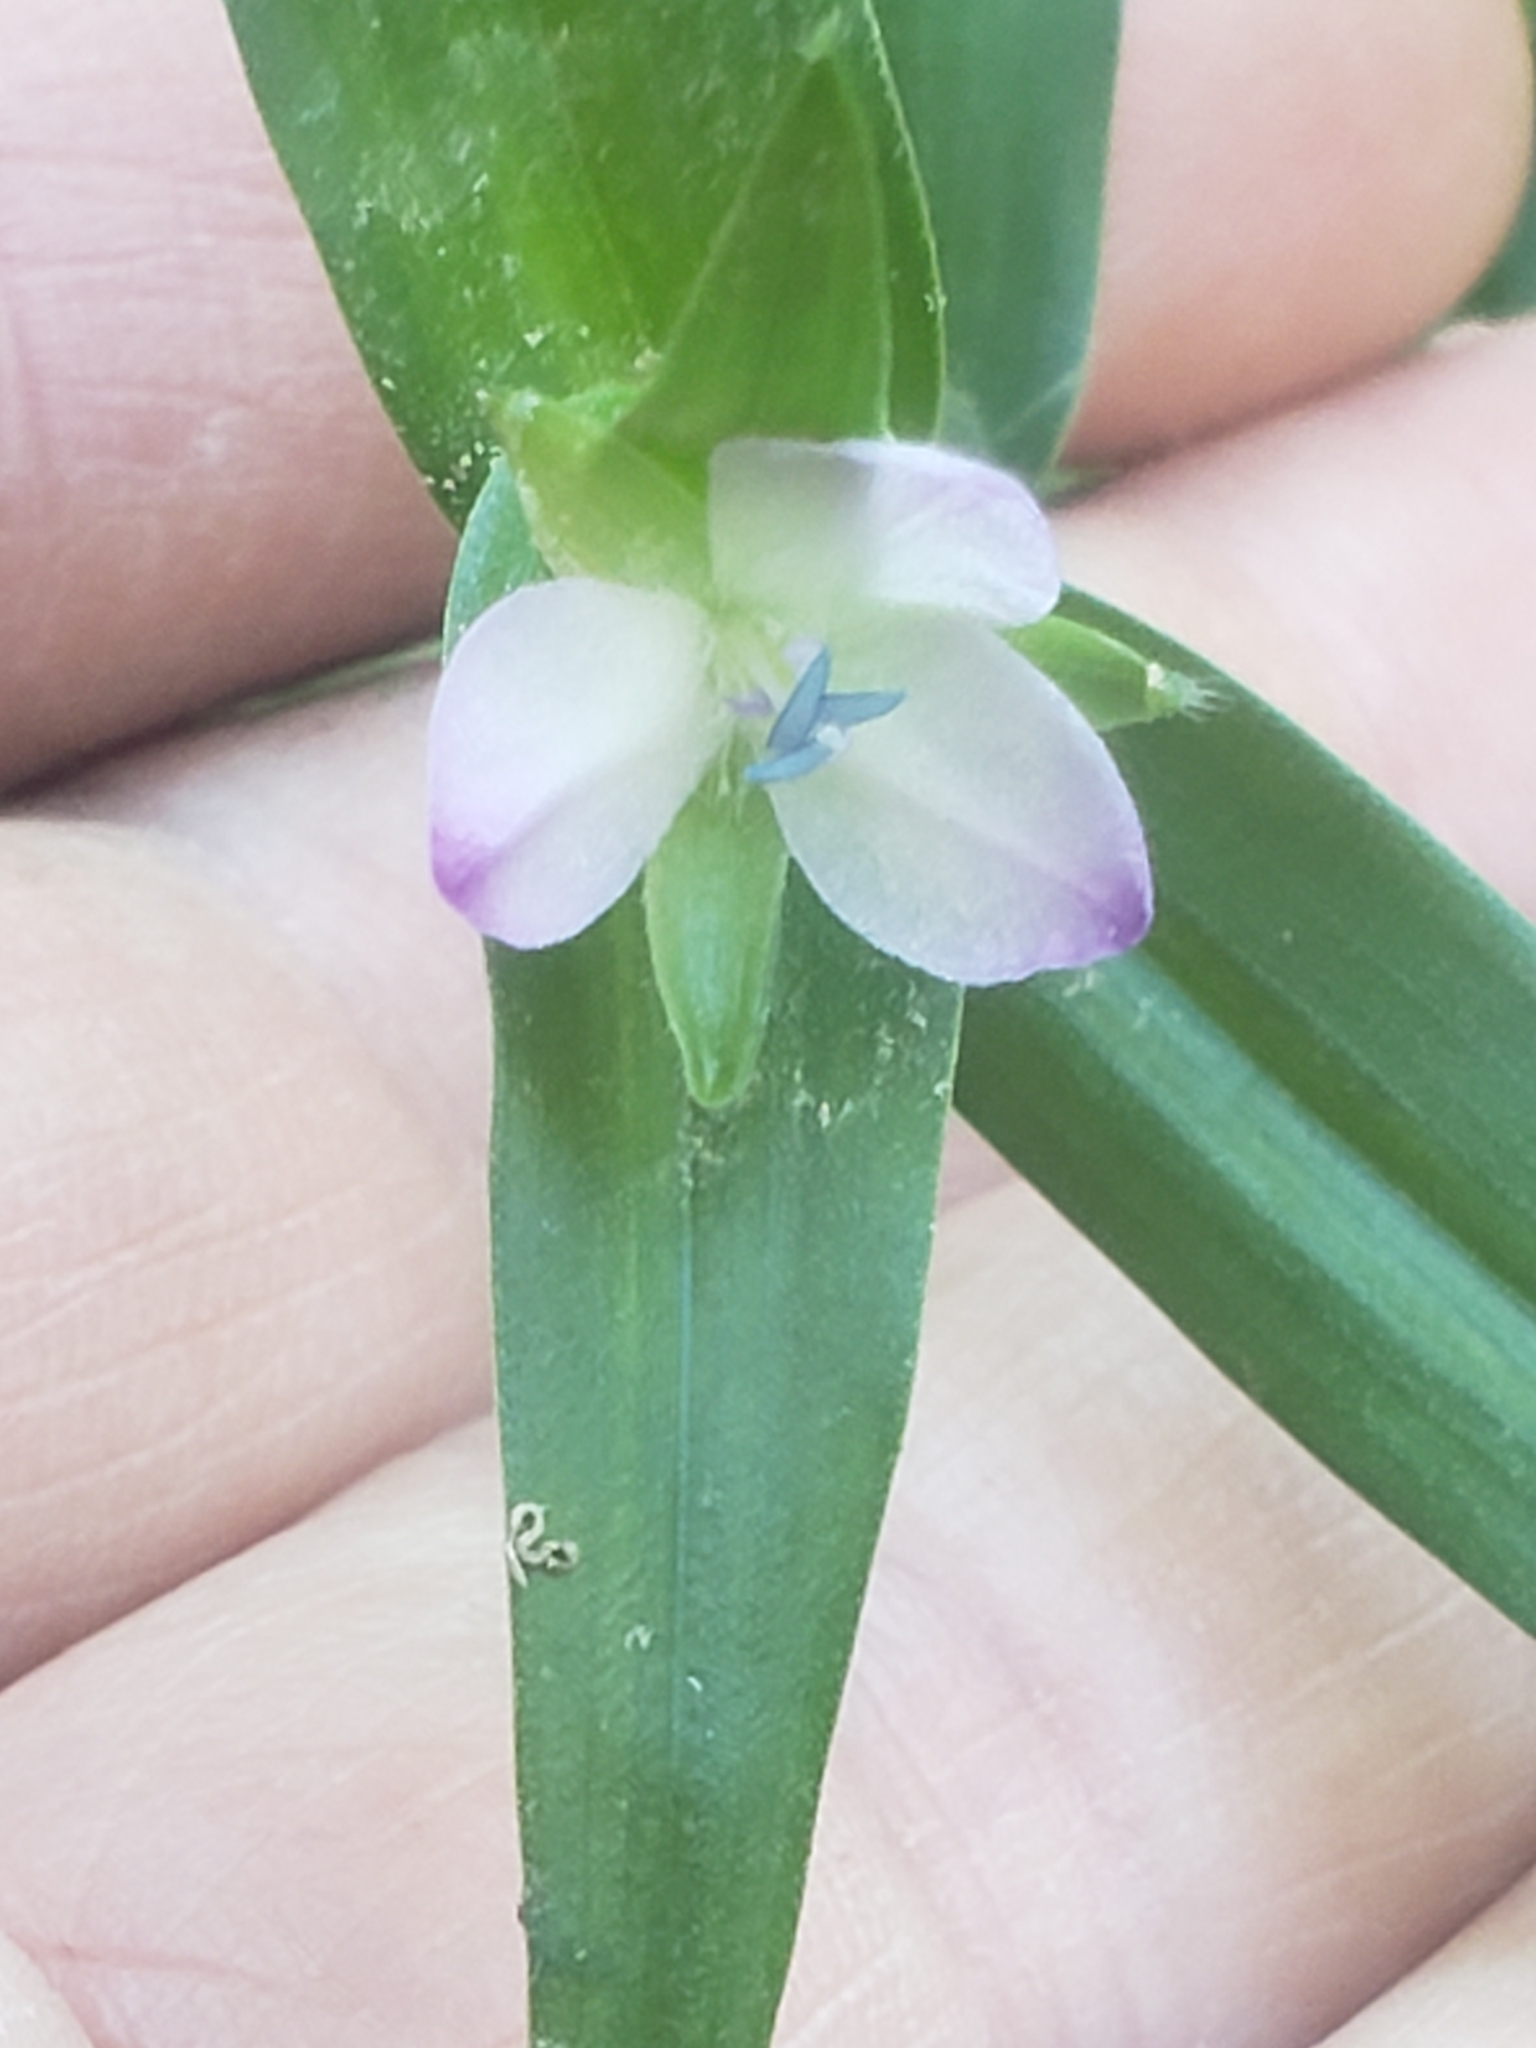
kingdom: Plantae
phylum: Tracheophyta
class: Liliopsida
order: Commelinales
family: Commelinaceae
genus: Murdannia
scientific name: Murdannia keisak
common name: Wartremoving herb
